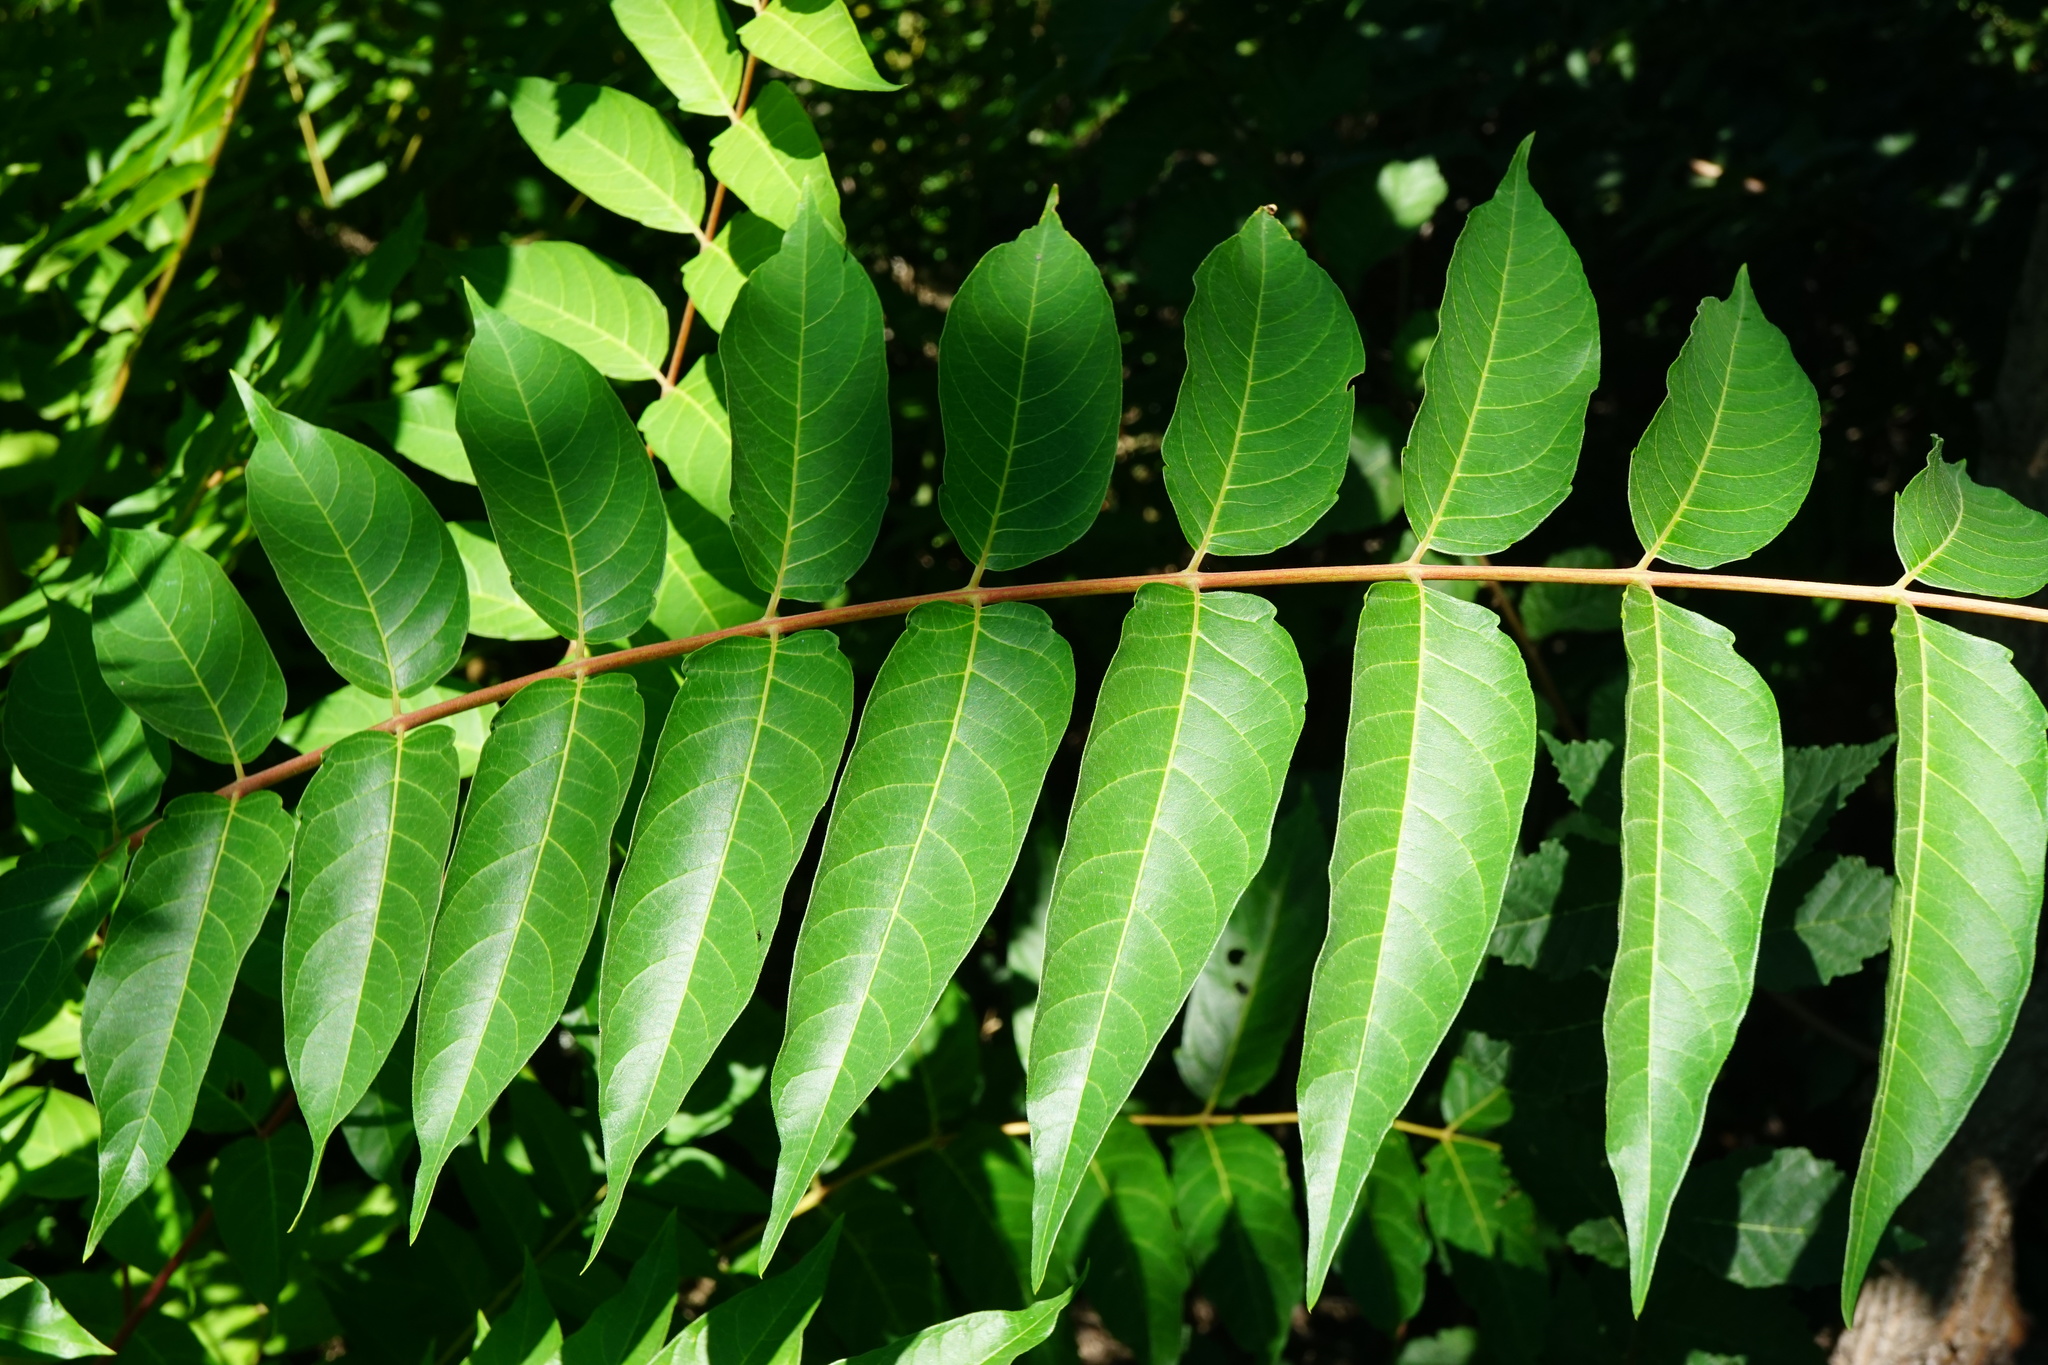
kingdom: Plantae
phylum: Tracheophyta
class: Magnoliopsida
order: Sapindales
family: Simaroubaceae
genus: Ailanthus
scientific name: Ailanthus altissima
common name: Tree-of-heaven
